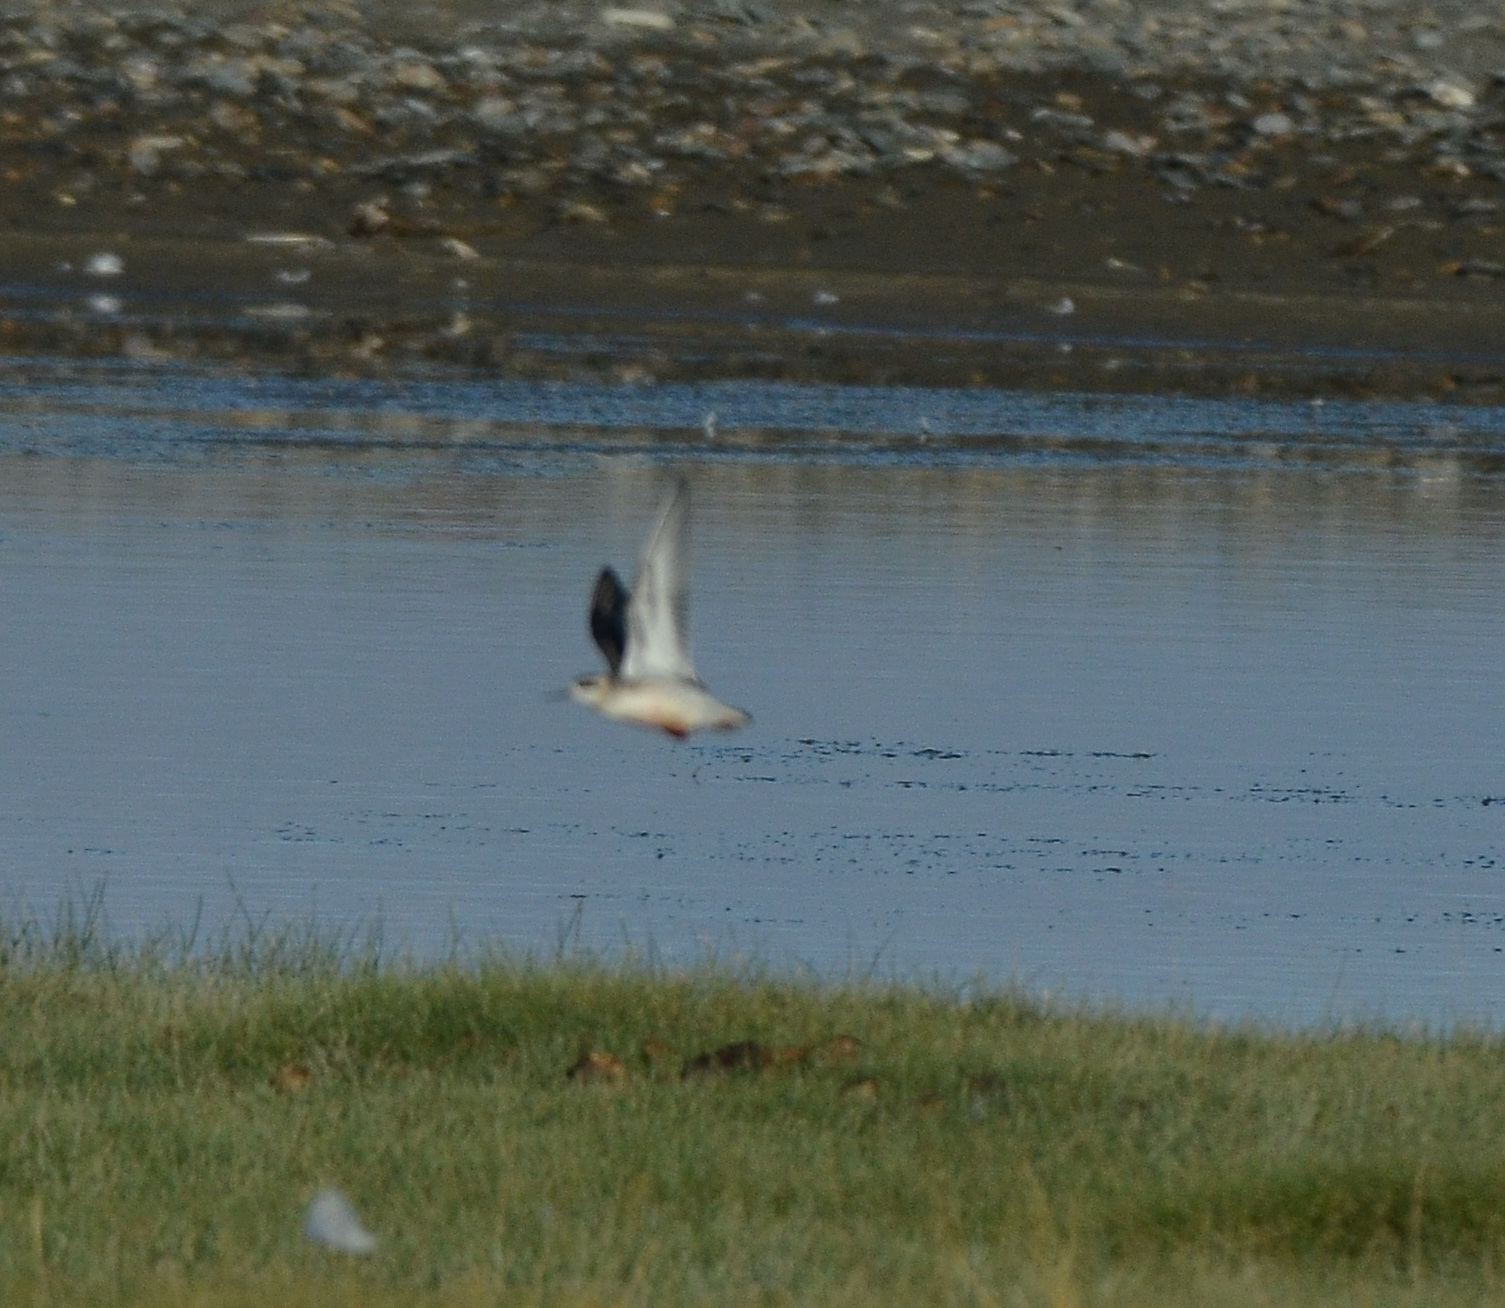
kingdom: Animalia
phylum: Chordata
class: Aves
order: Charadriiformes
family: Scolopacidae
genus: Phalaropus
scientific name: Phalaropus lobatus
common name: Red-necked phalarope
